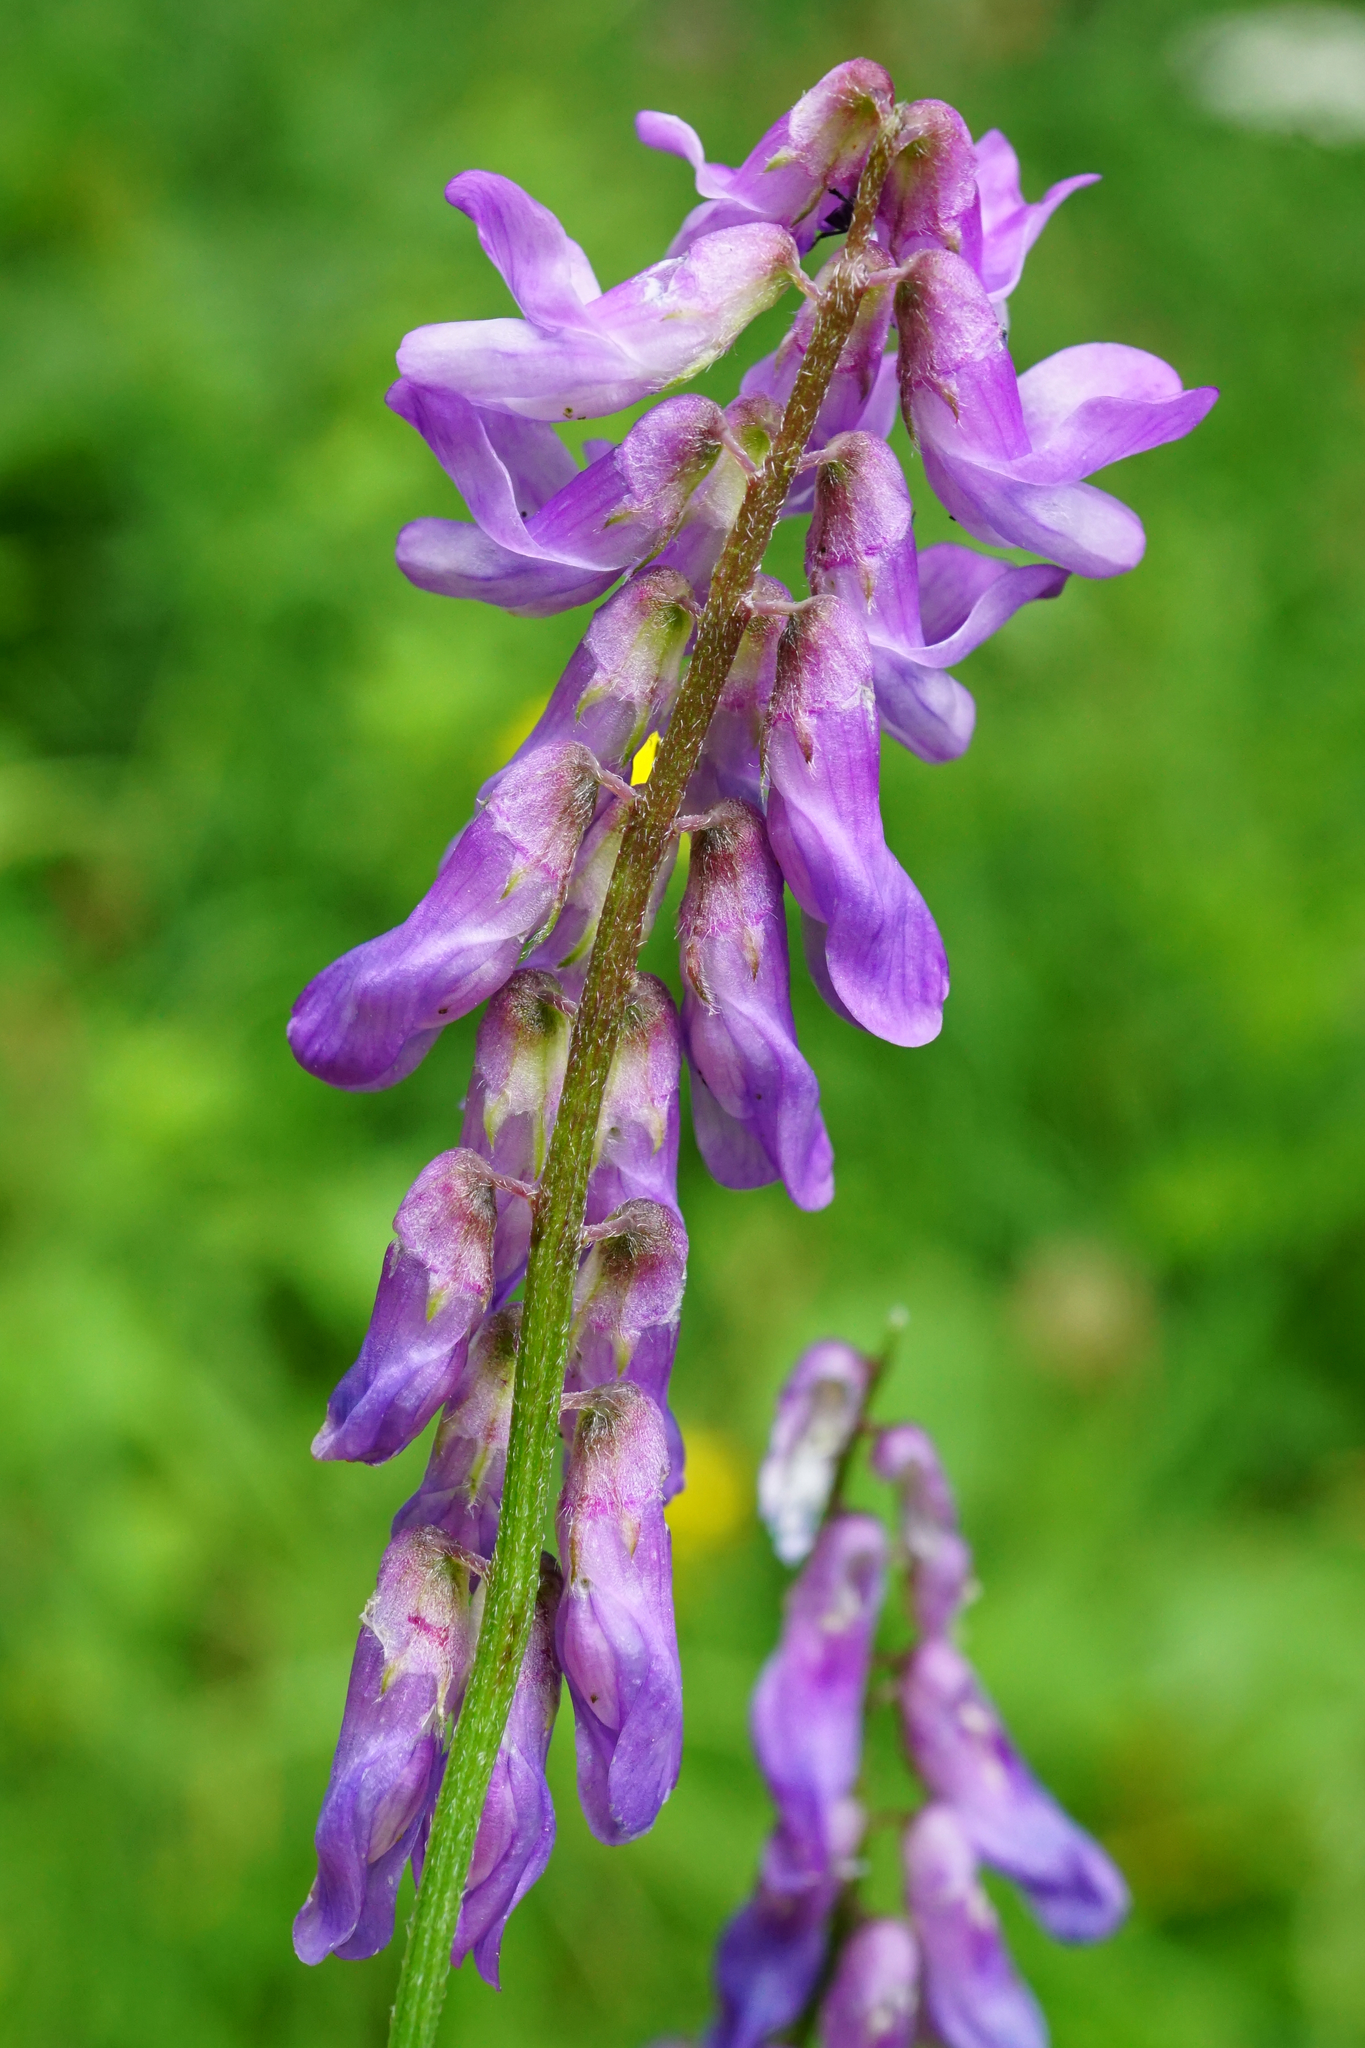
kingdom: Plantae
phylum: Tracheophyta
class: Magnoliopsida
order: Fabales
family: Fabaceae
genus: Vicia
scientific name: Vicia cracca
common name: Bird vetch
